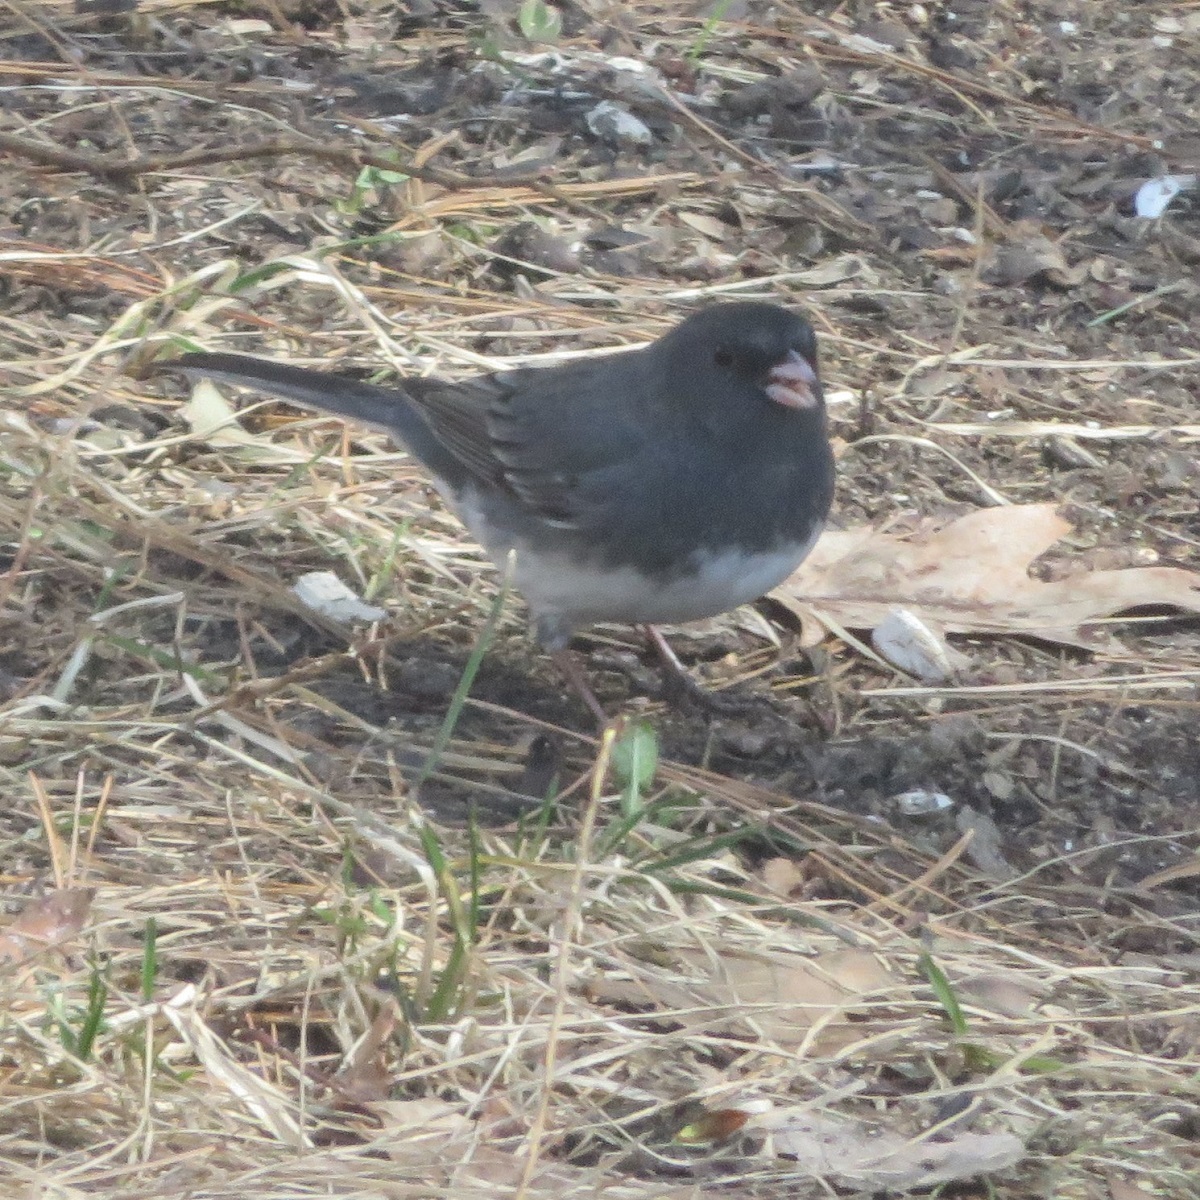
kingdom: Animalia
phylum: Chordata
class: Aves
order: Passeriformes
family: Passerellidae
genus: Junco
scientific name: Junco hyemalis
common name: Dark-eyed junco
